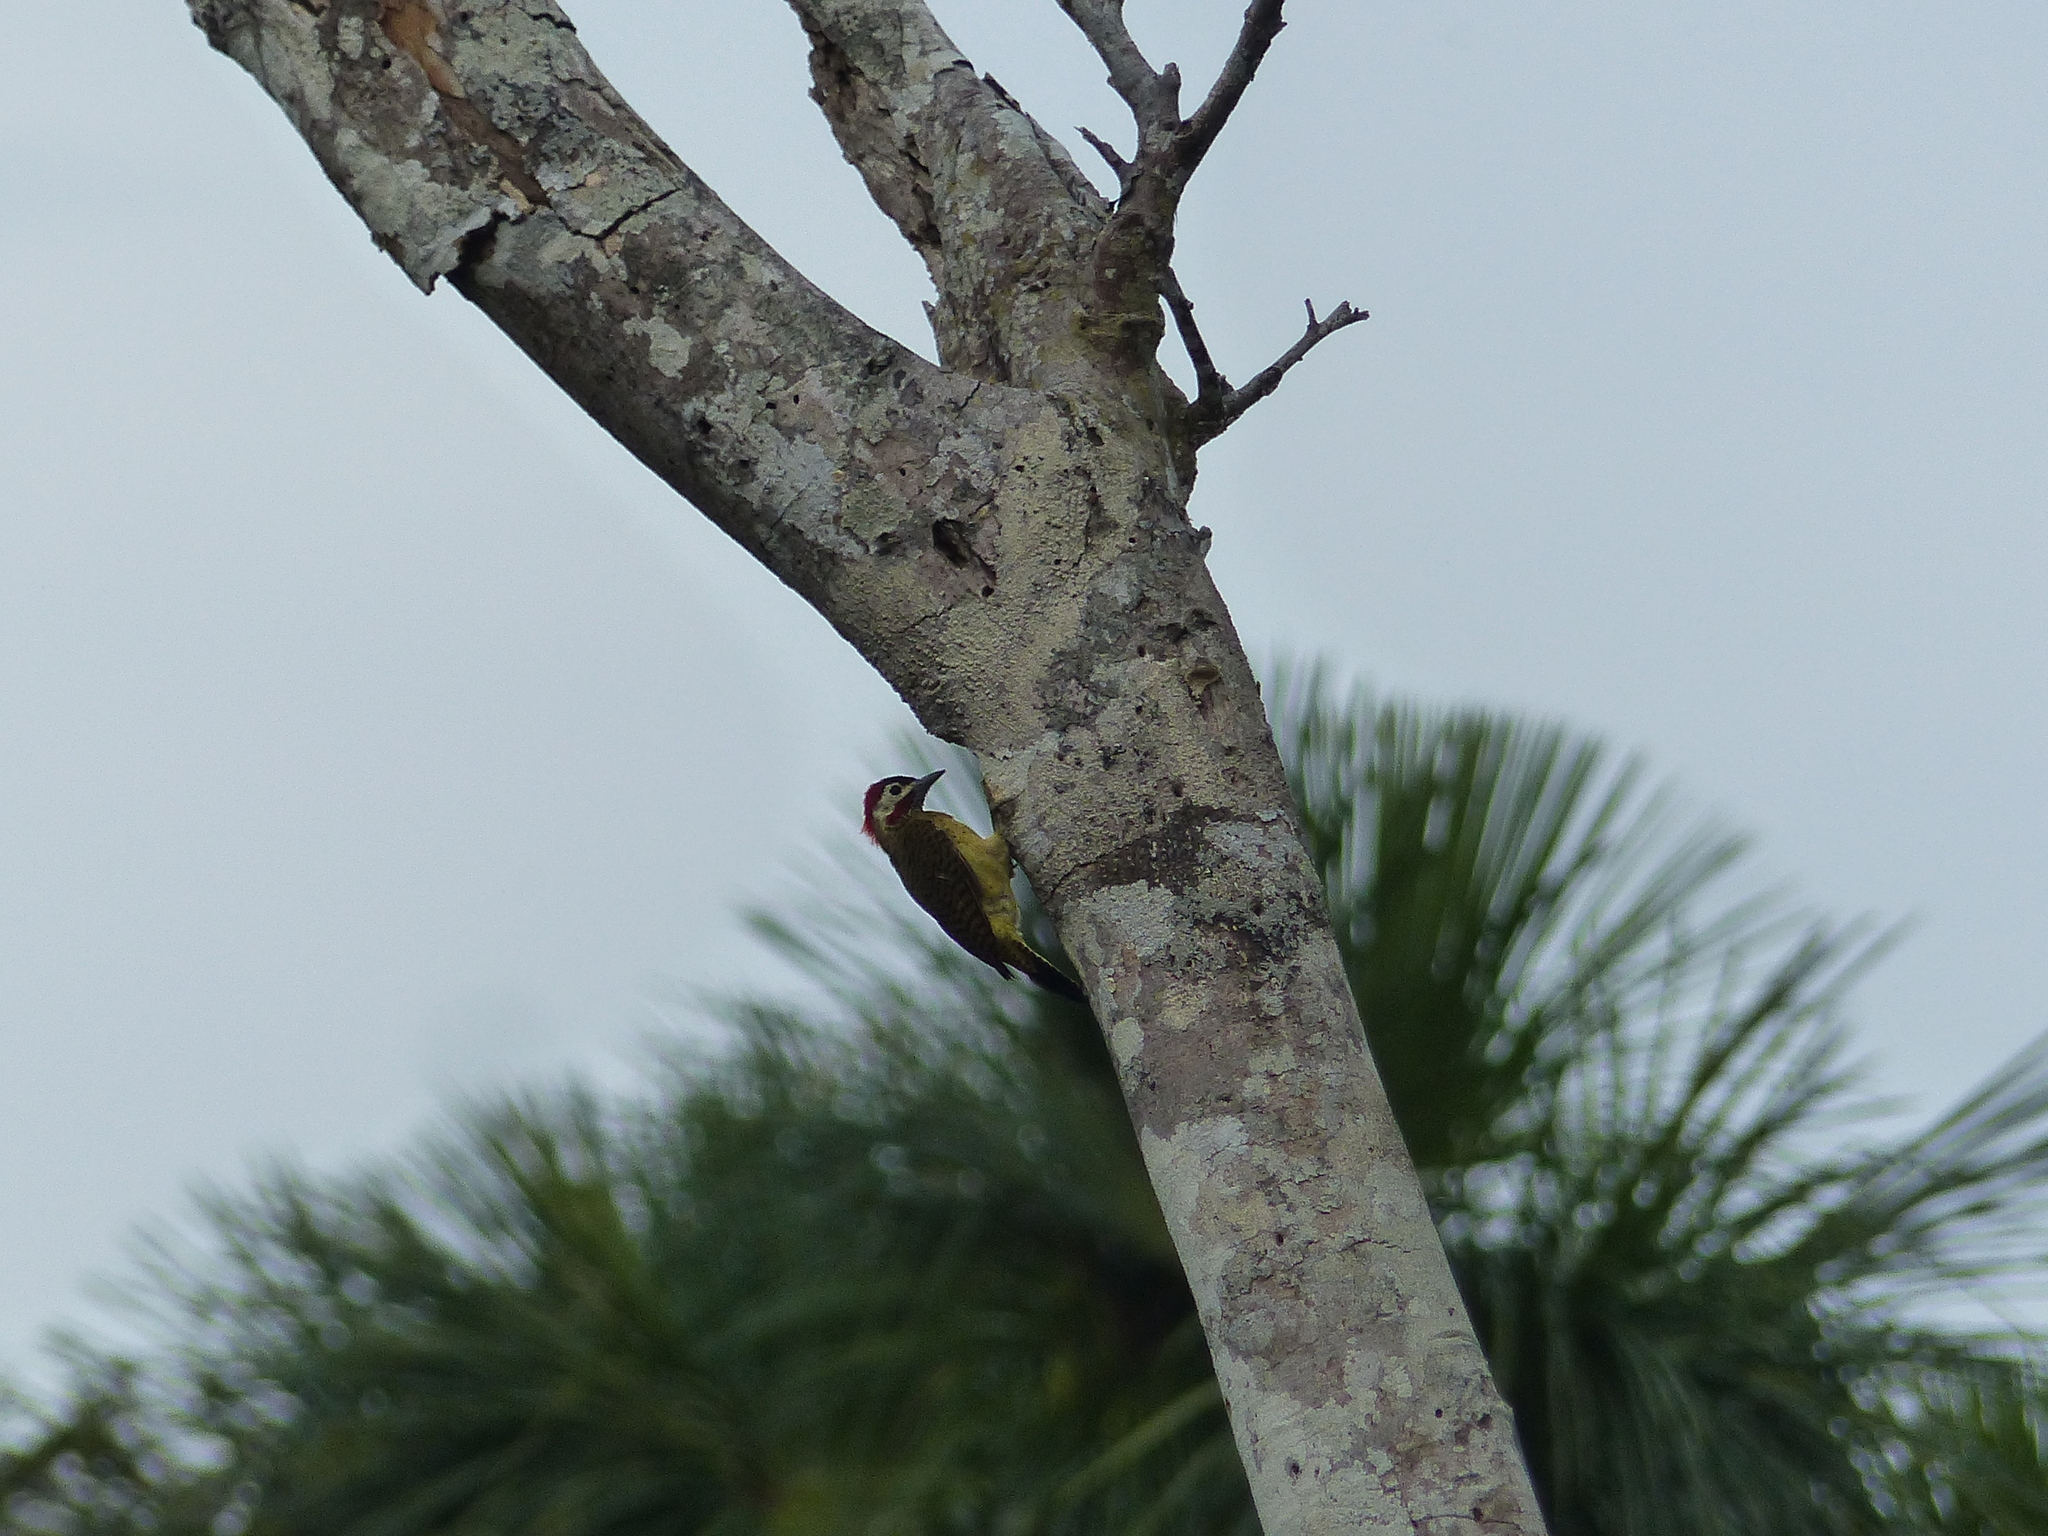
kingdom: Animalia
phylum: Chordata
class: Aves
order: Piciformes
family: Picidae
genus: Colaptes
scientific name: Colaptes punctigula
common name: Spot-breasted woodpecker
